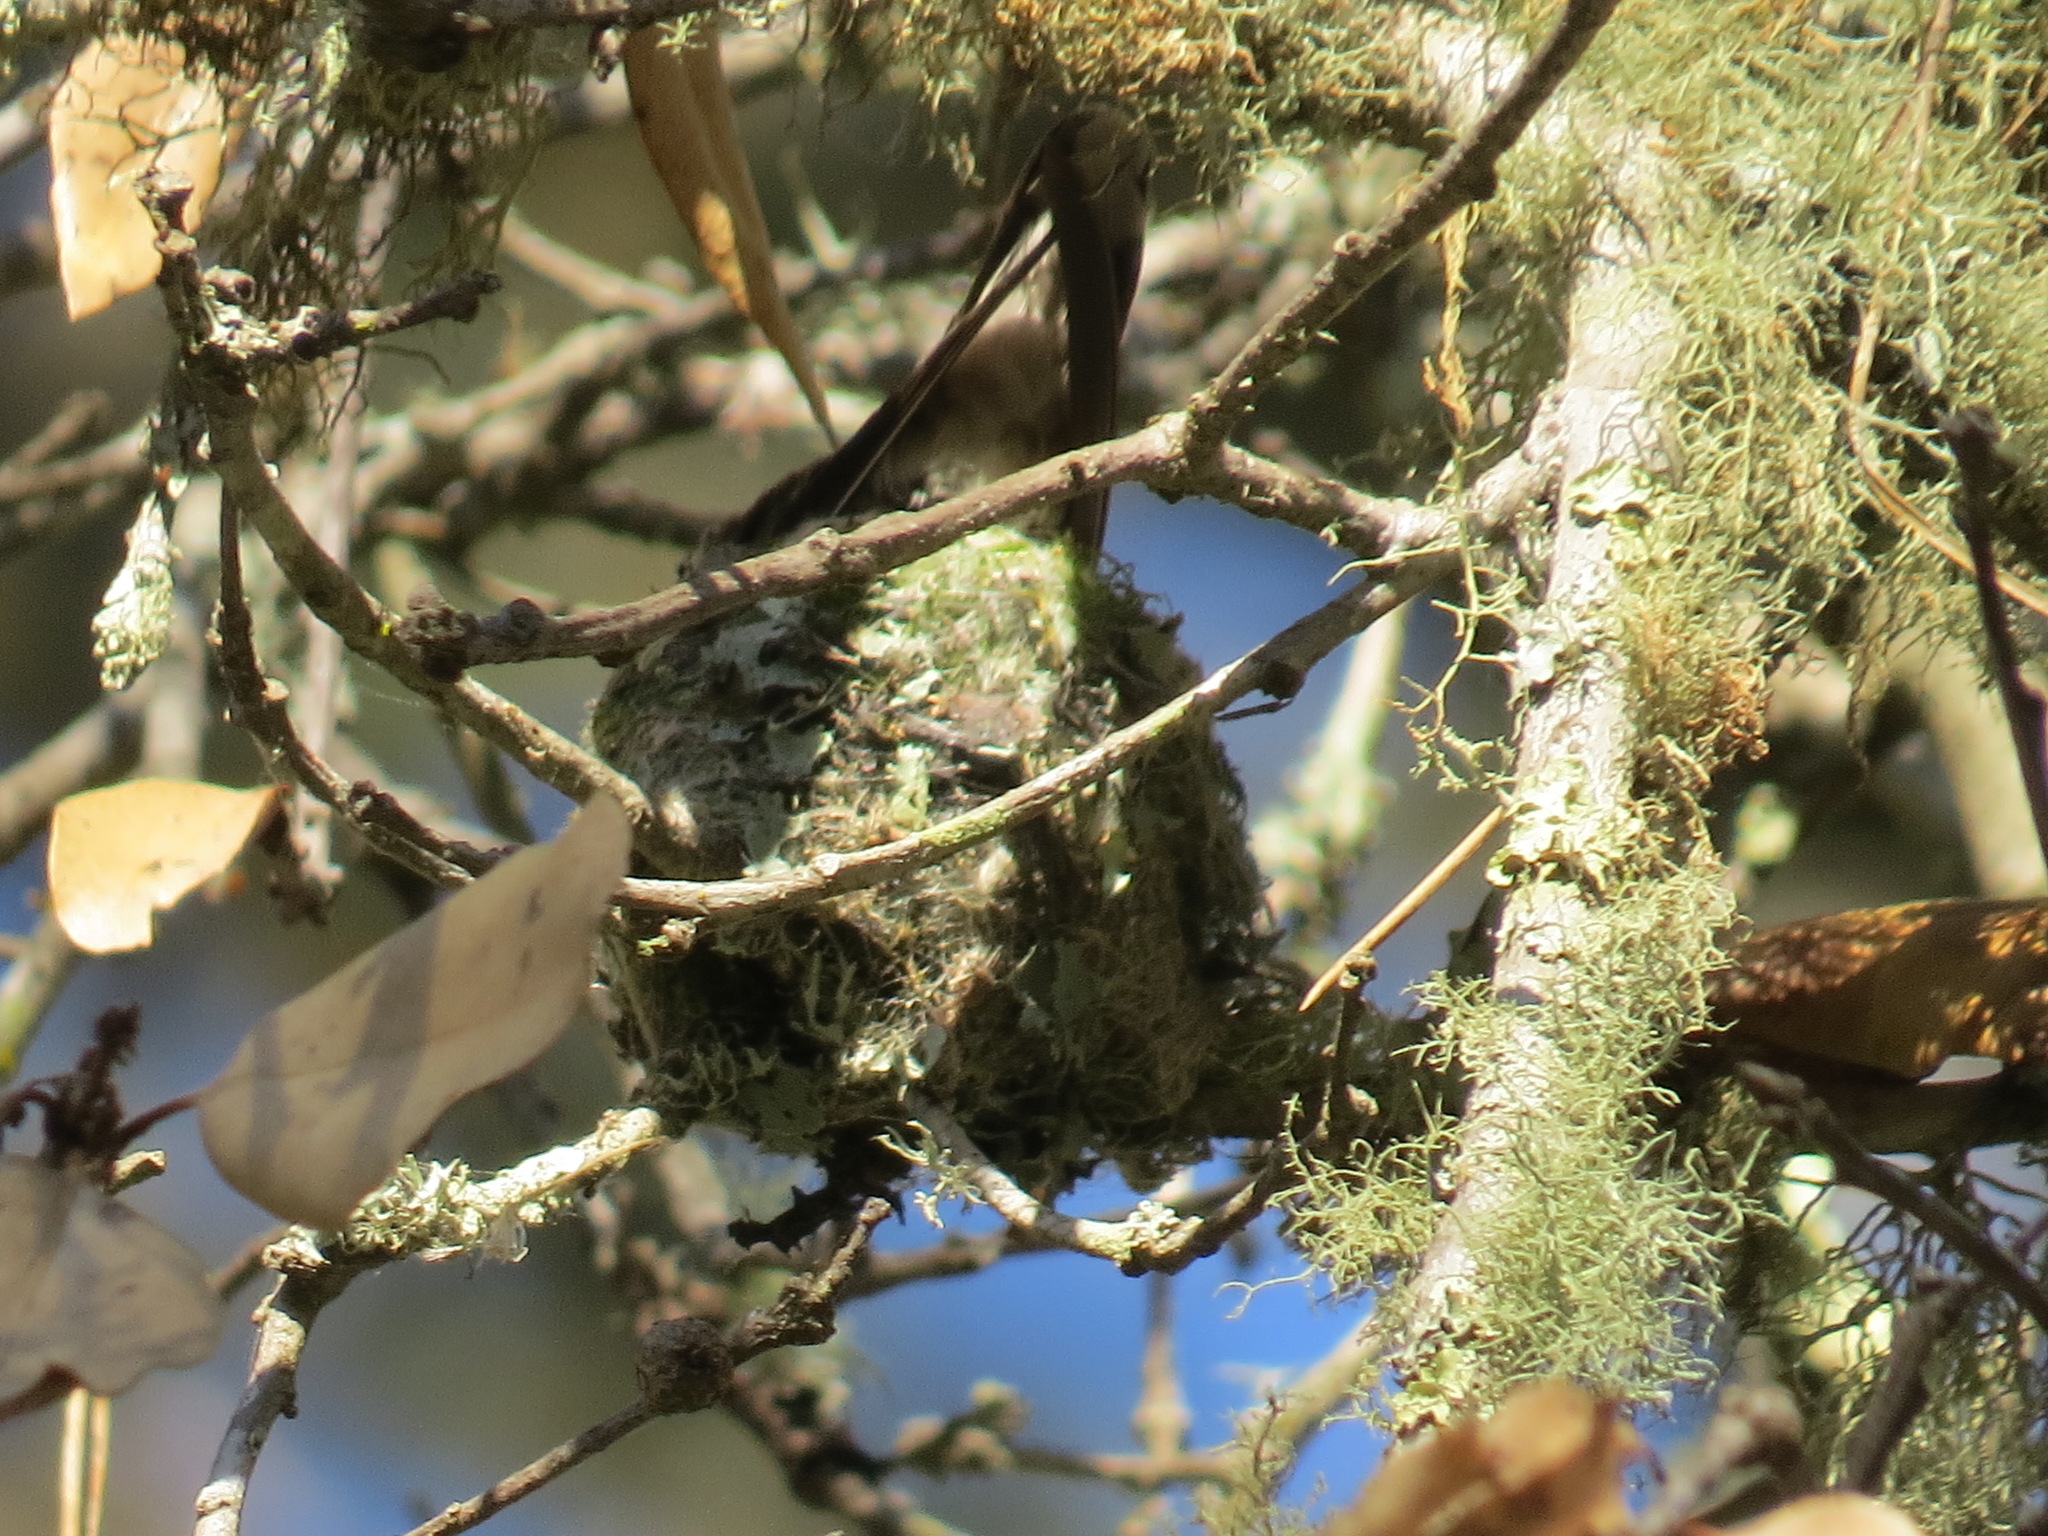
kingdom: Animalia
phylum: Chordata
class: Aves
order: Apodiformes
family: Trochilidae
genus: Calypte
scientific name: Calypte anna
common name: Anna's hummingbird
